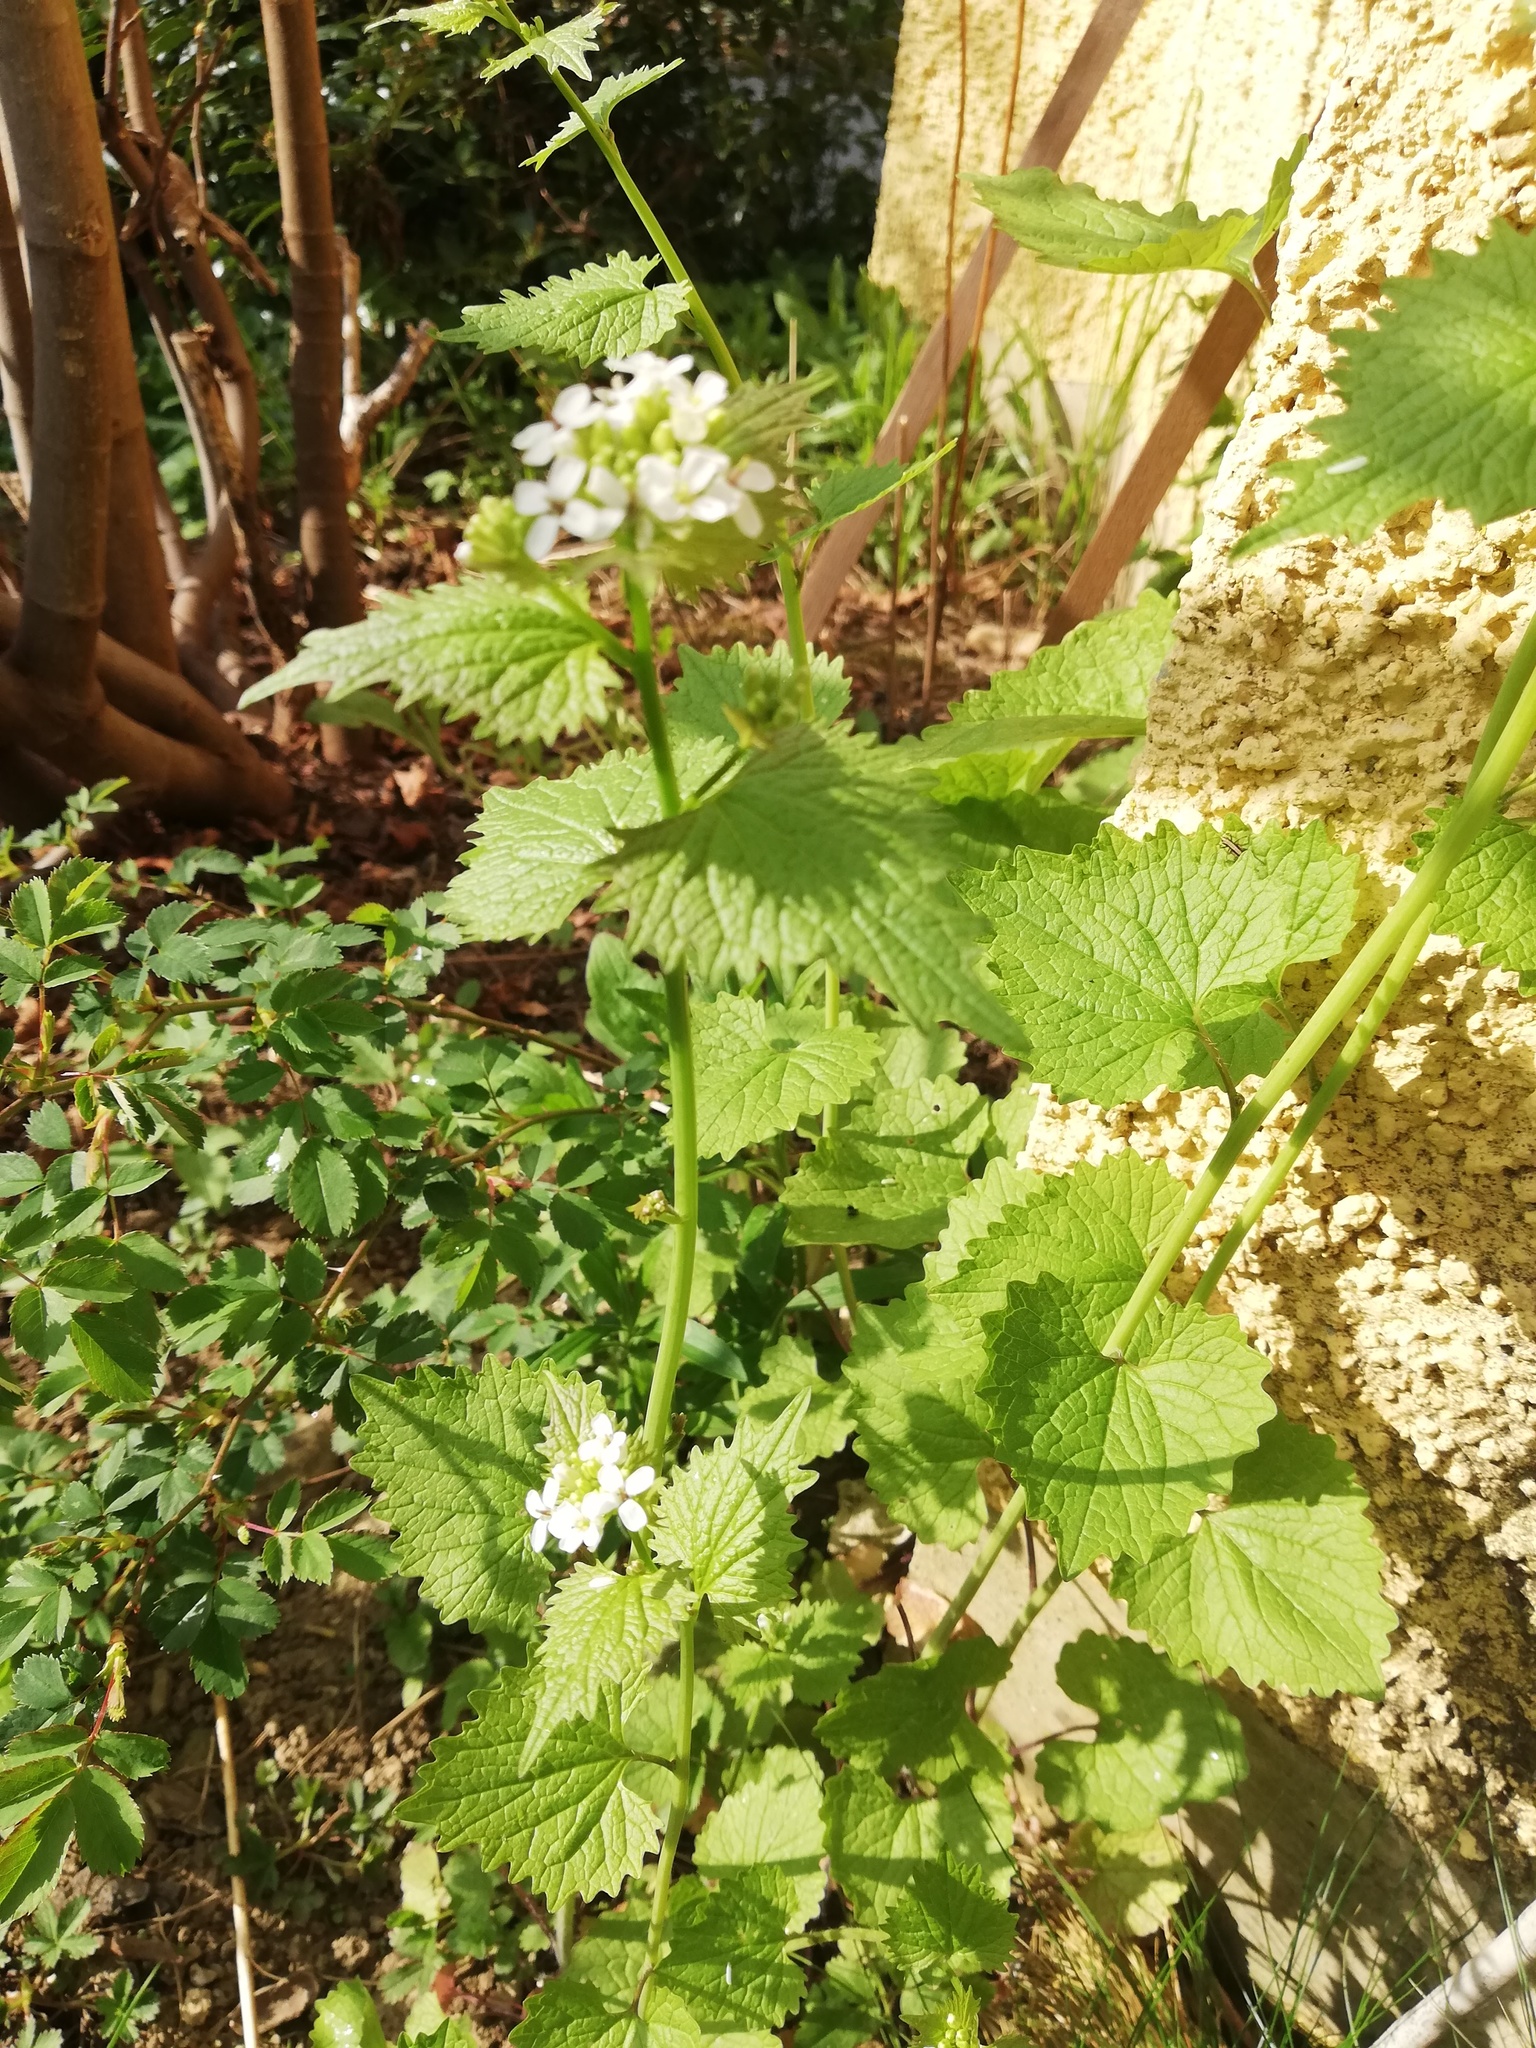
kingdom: Plantae
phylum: Tracheophyta
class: Magnoliopsida
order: Brassicales
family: Brassicaceae
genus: Alliaria
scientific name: Alliaria petiolata
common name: Garlic mustard
